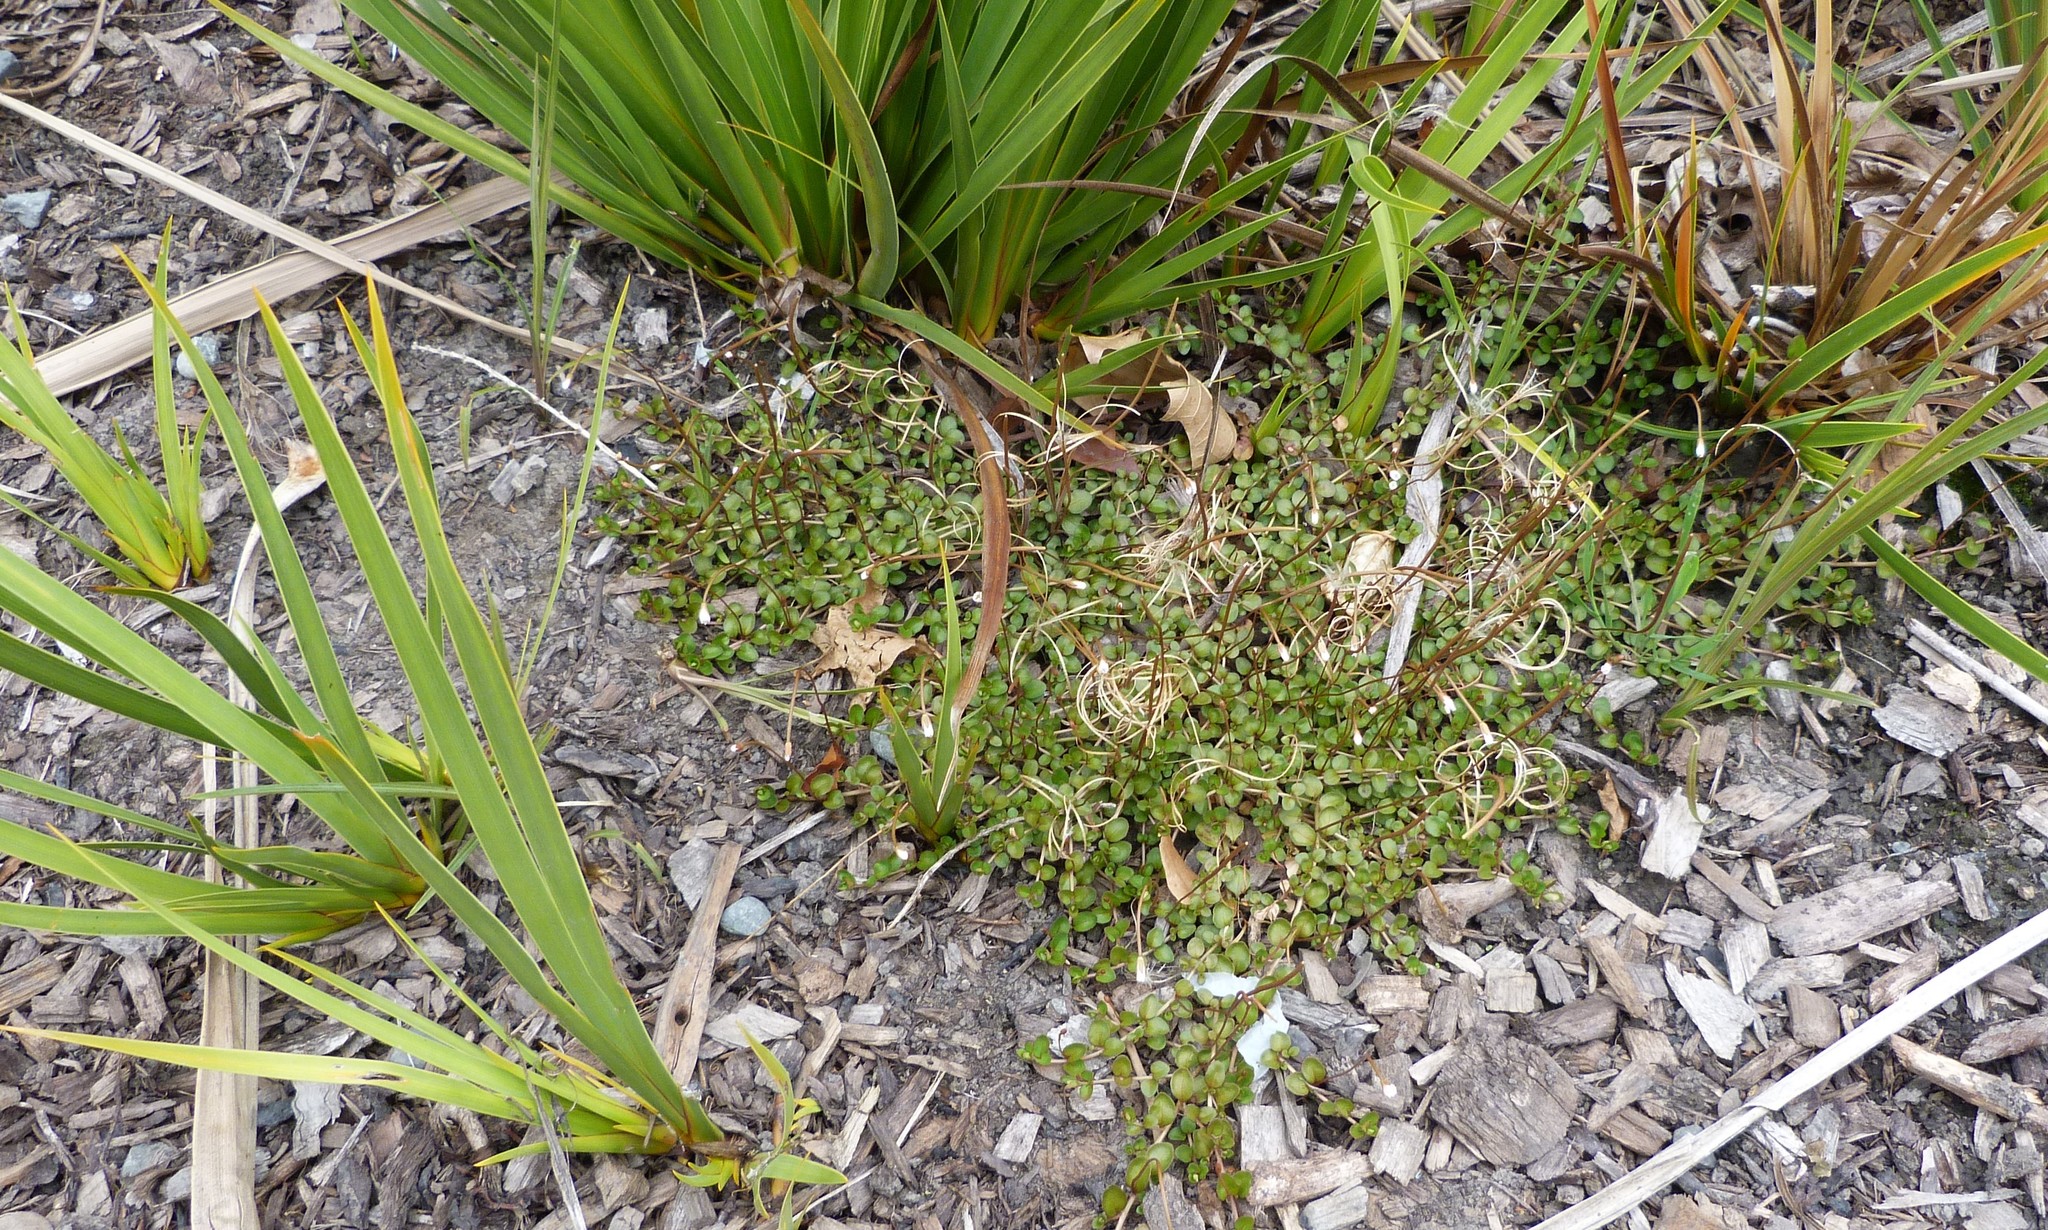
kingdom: Plantae
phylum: Tracheophyta
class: Magnoliopsida
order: Myrtales
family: Onagraceae
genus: Epilobium
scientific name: Epilobium brunnescens
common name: New zealand willowherb
